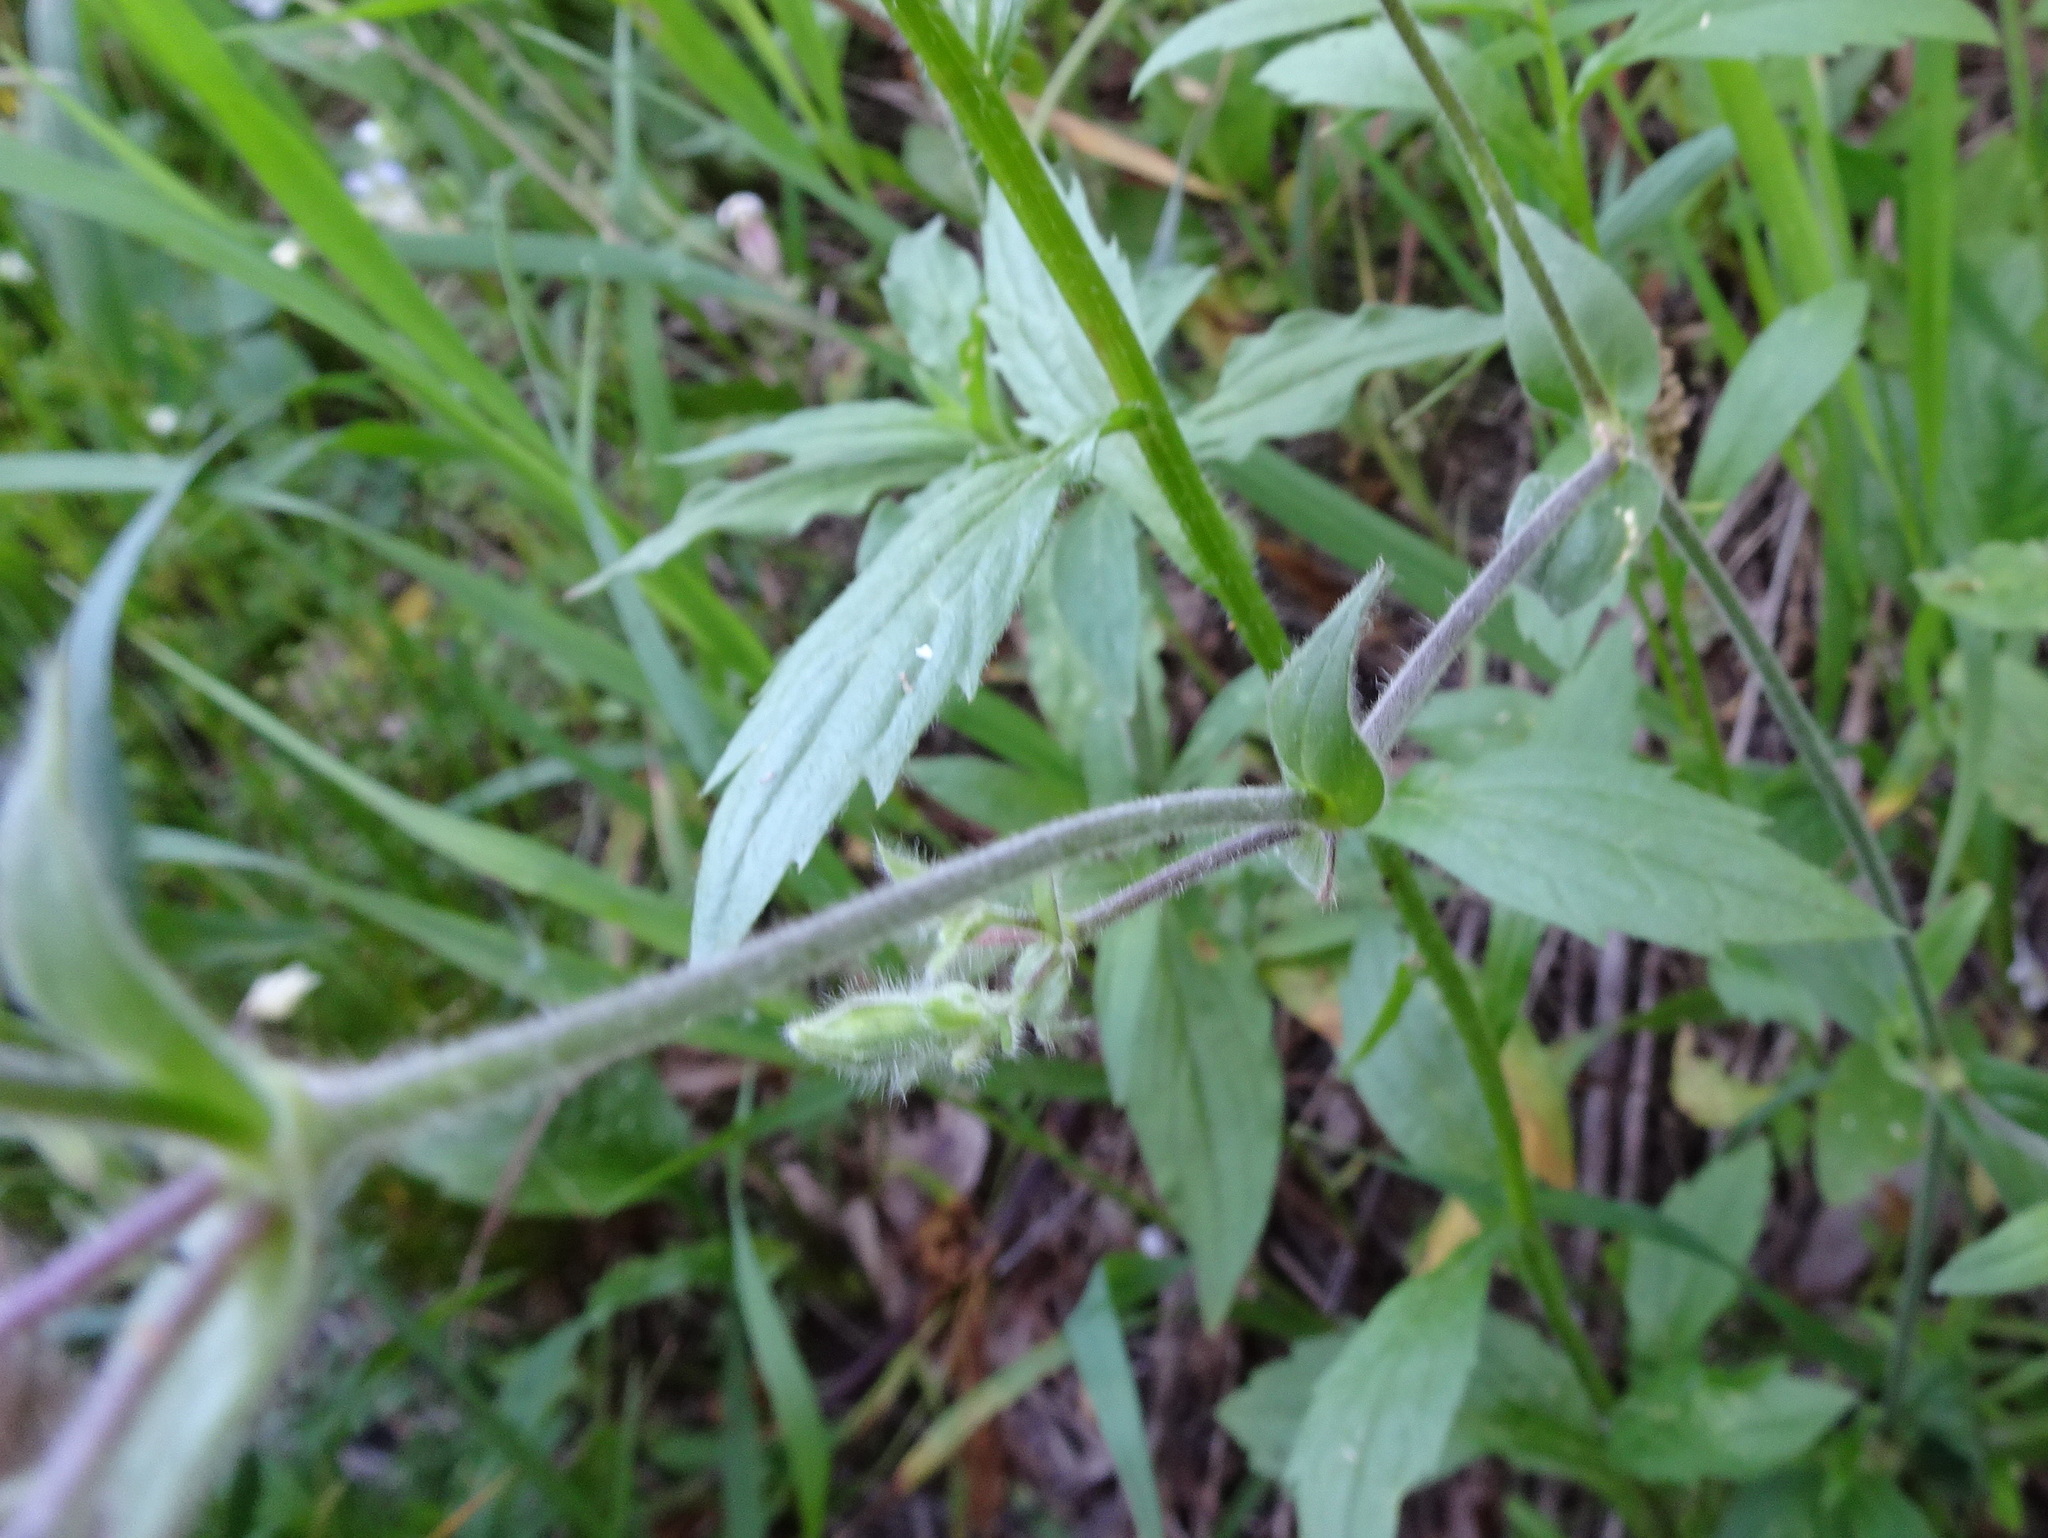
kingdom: Plantae
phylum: Tracheophyta
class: Magnoliopsida
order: Caryophyllales
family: Caryophyllaceae
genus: Silene
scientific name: Silene latifolia
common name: White campion
